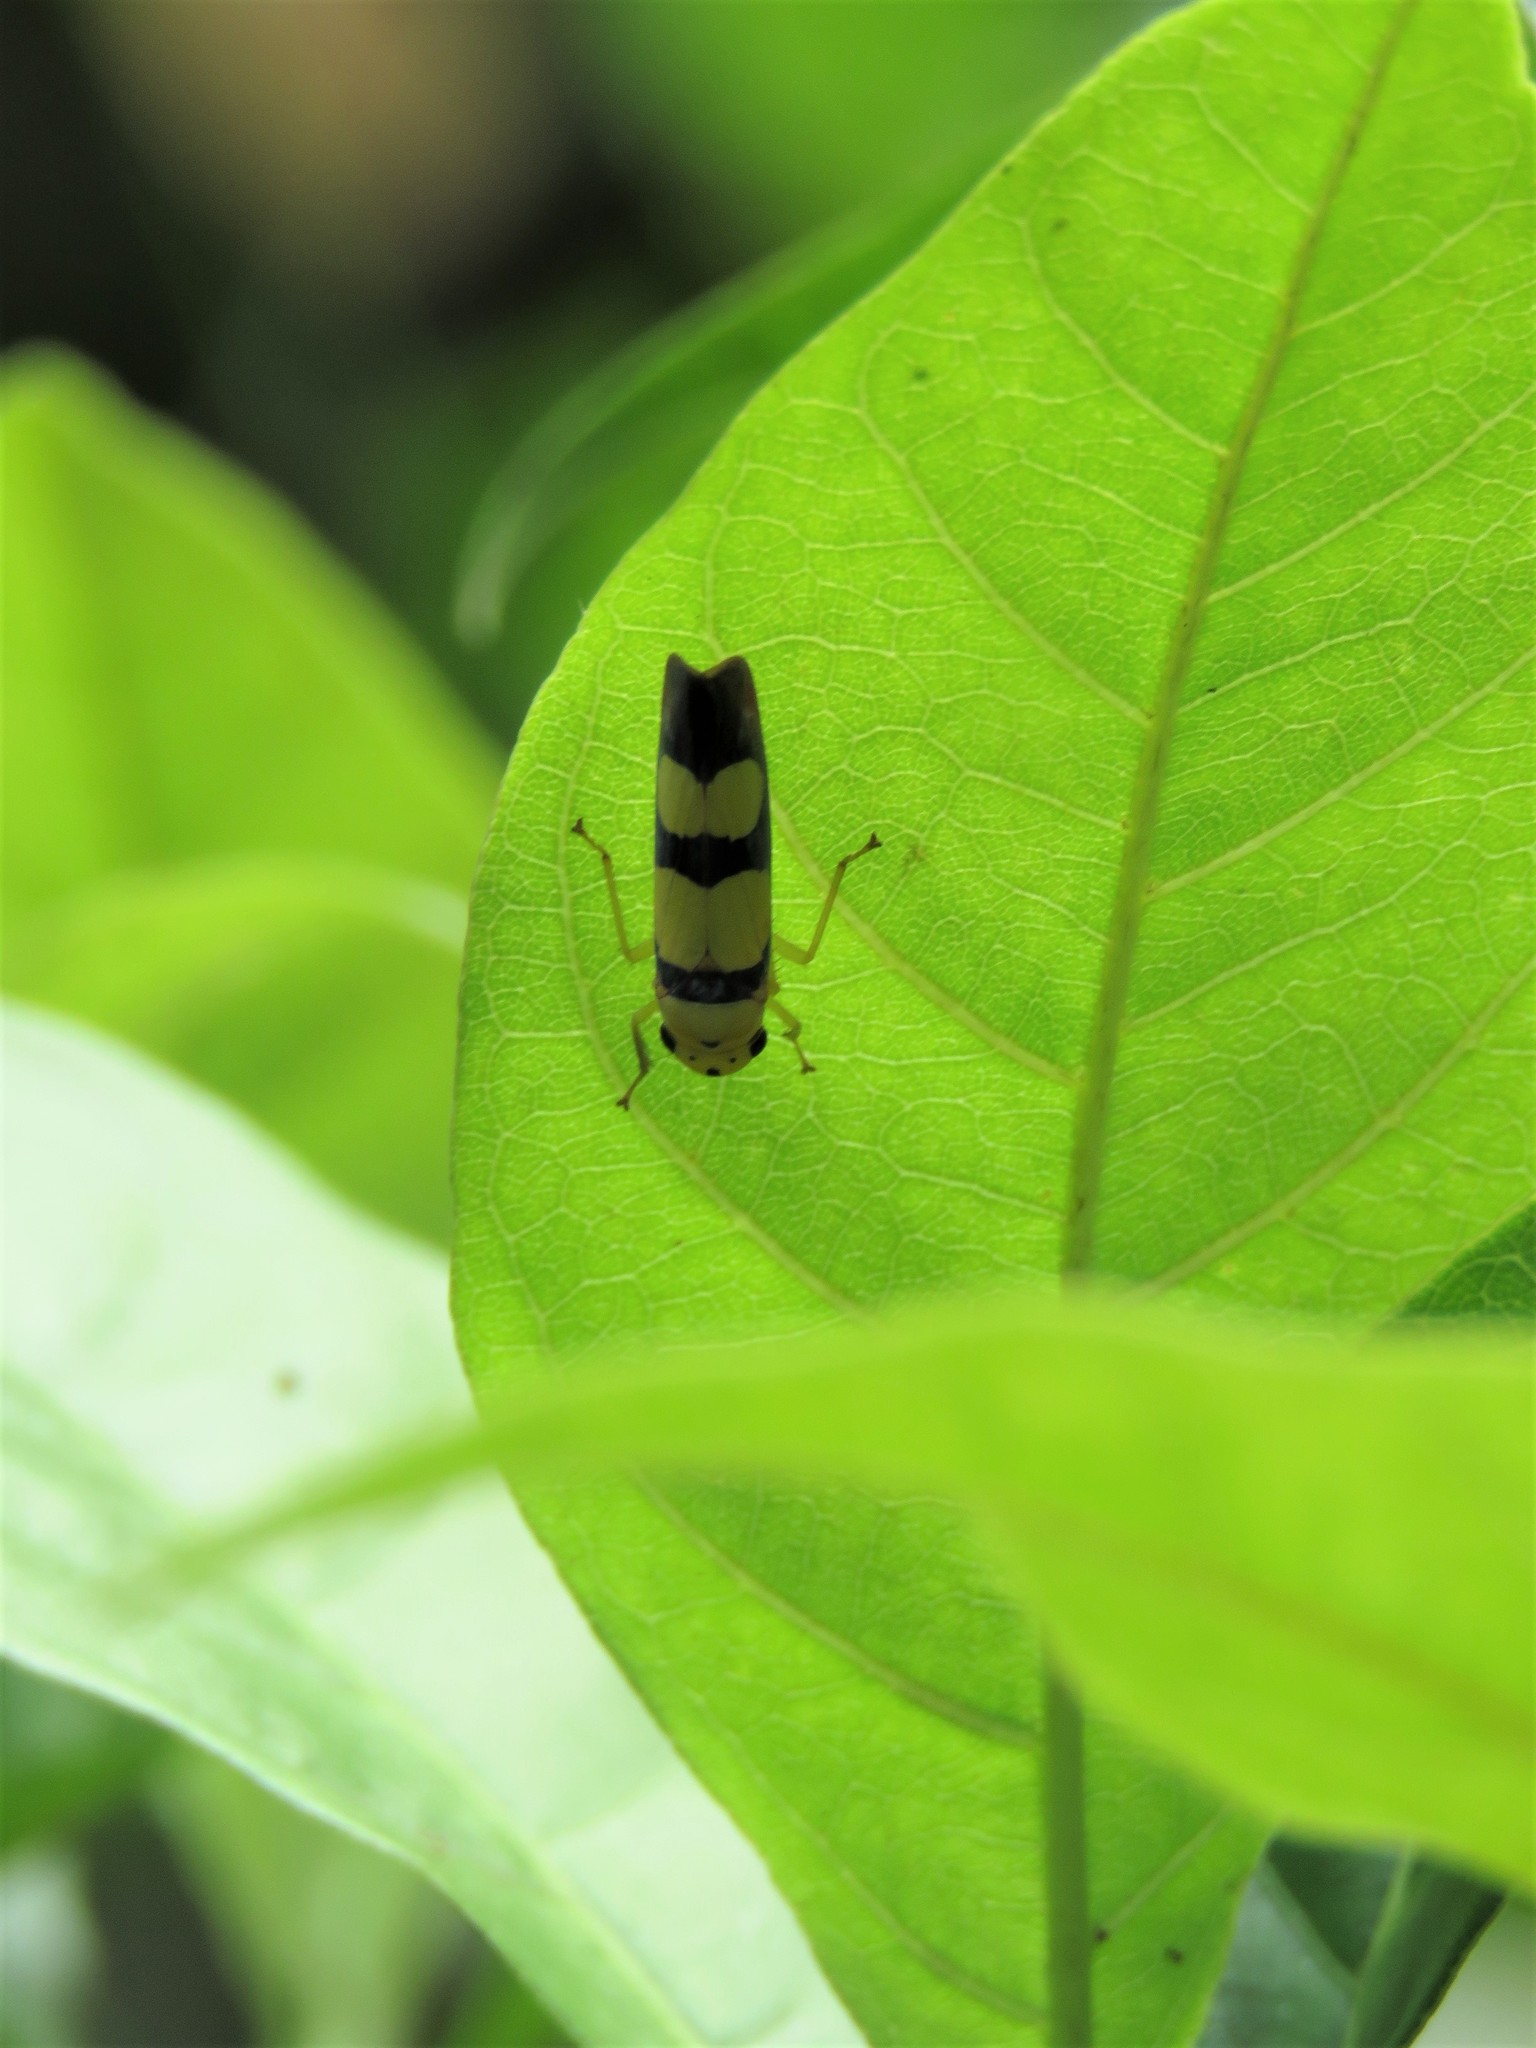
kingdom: Animalia
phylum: Arthropoda
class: Insecta
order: Hemiptera
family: Cicadellidae
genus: Tettisama
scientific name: Tettisama bisellata
